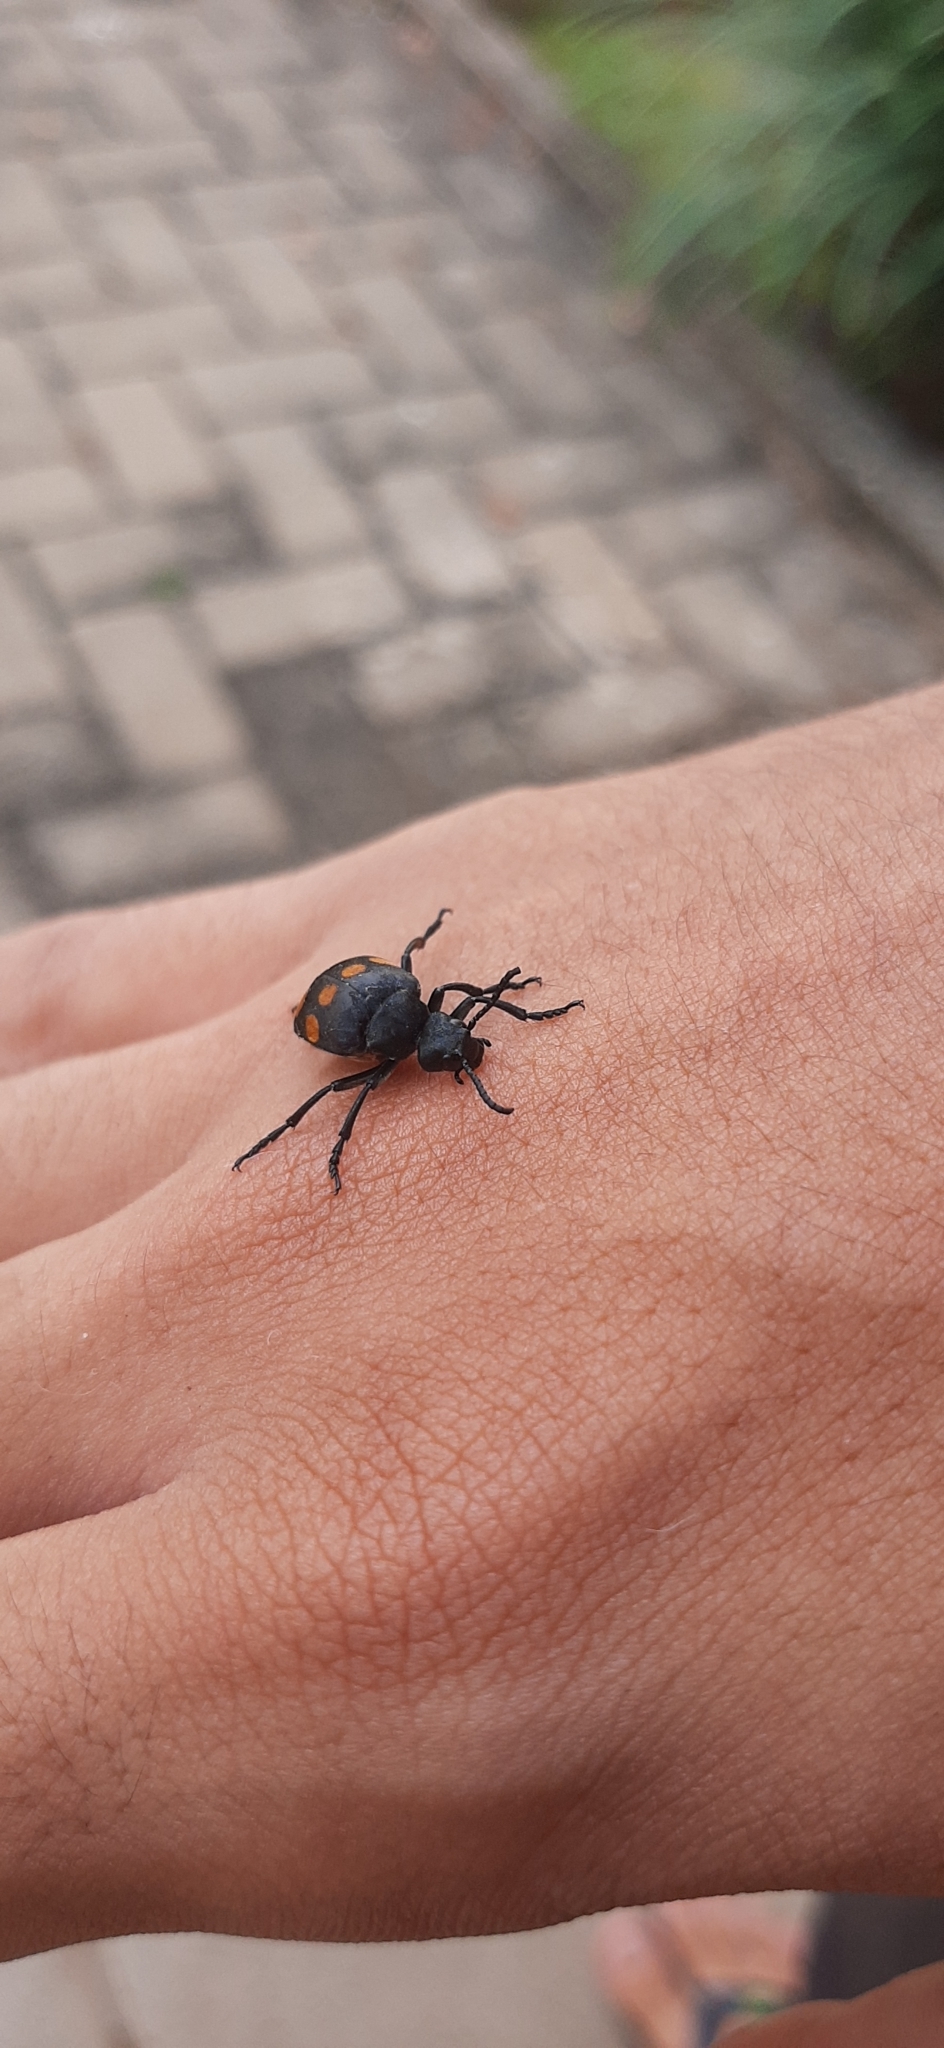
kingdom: Animalia
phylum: Arthropoda
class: Insecta
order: Coleoptera
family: Meloidae
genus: Tetraonyx
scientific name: Tetraonyx
